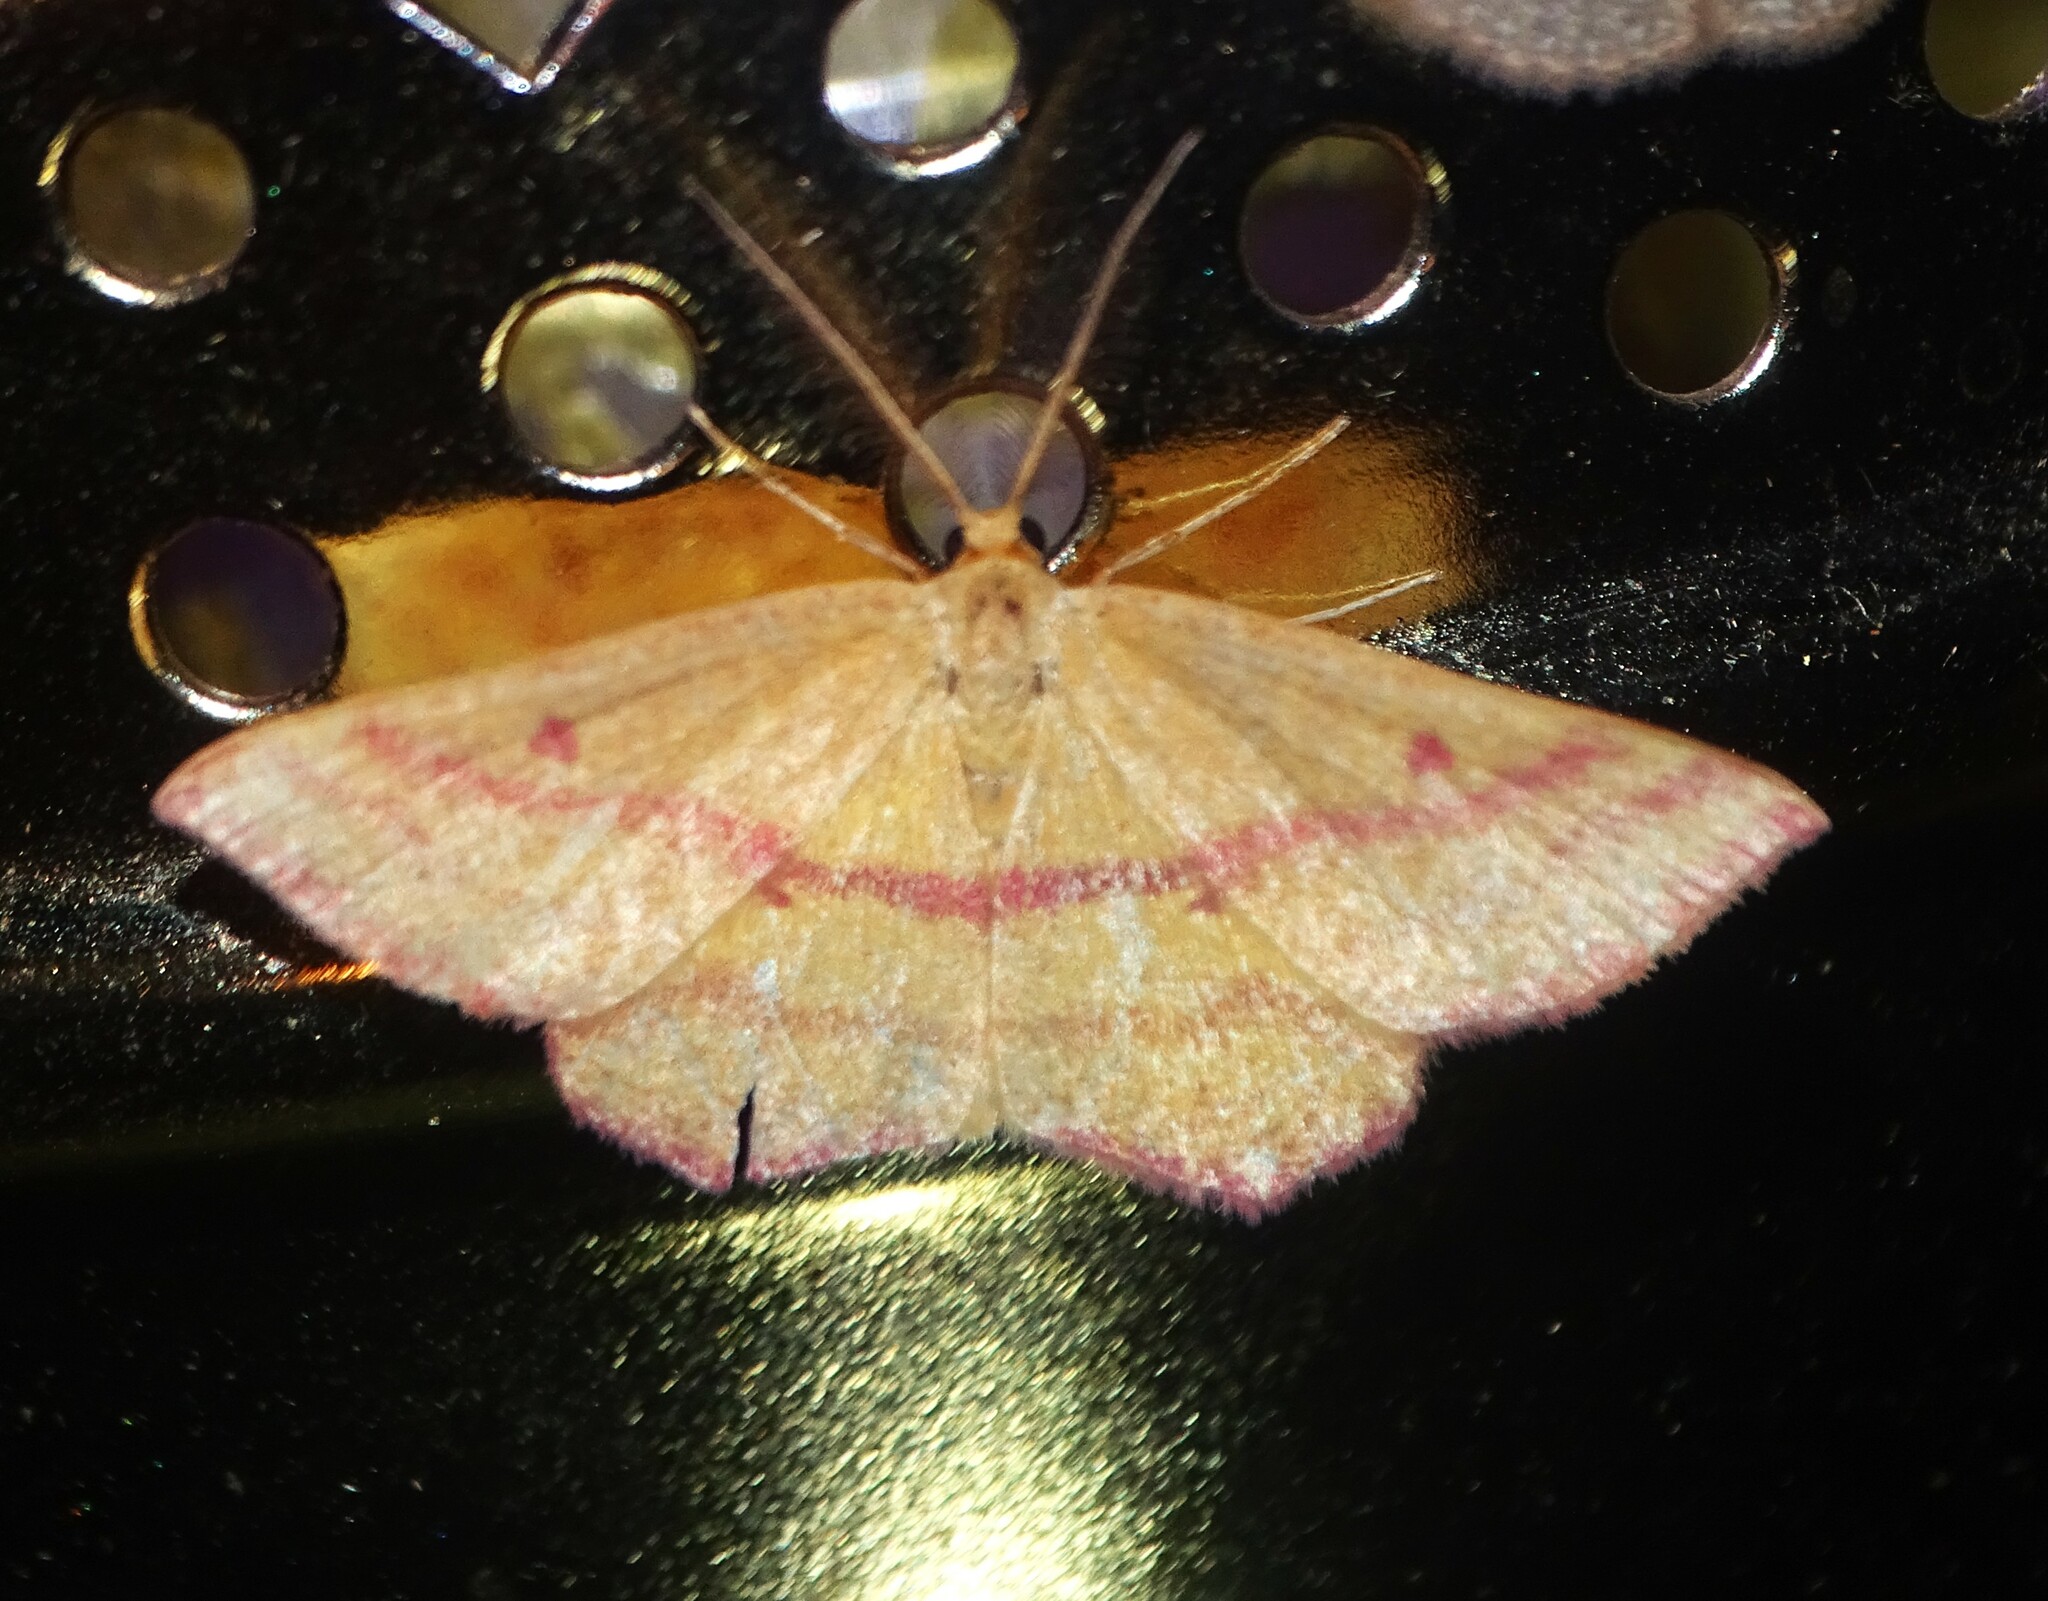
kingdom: Animalia
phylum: Arthropoda
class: Insecta
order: Lepidoptera
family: Geometridae
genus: Haematopis
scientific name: Haematopis grataria
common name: Chickweed geometer
